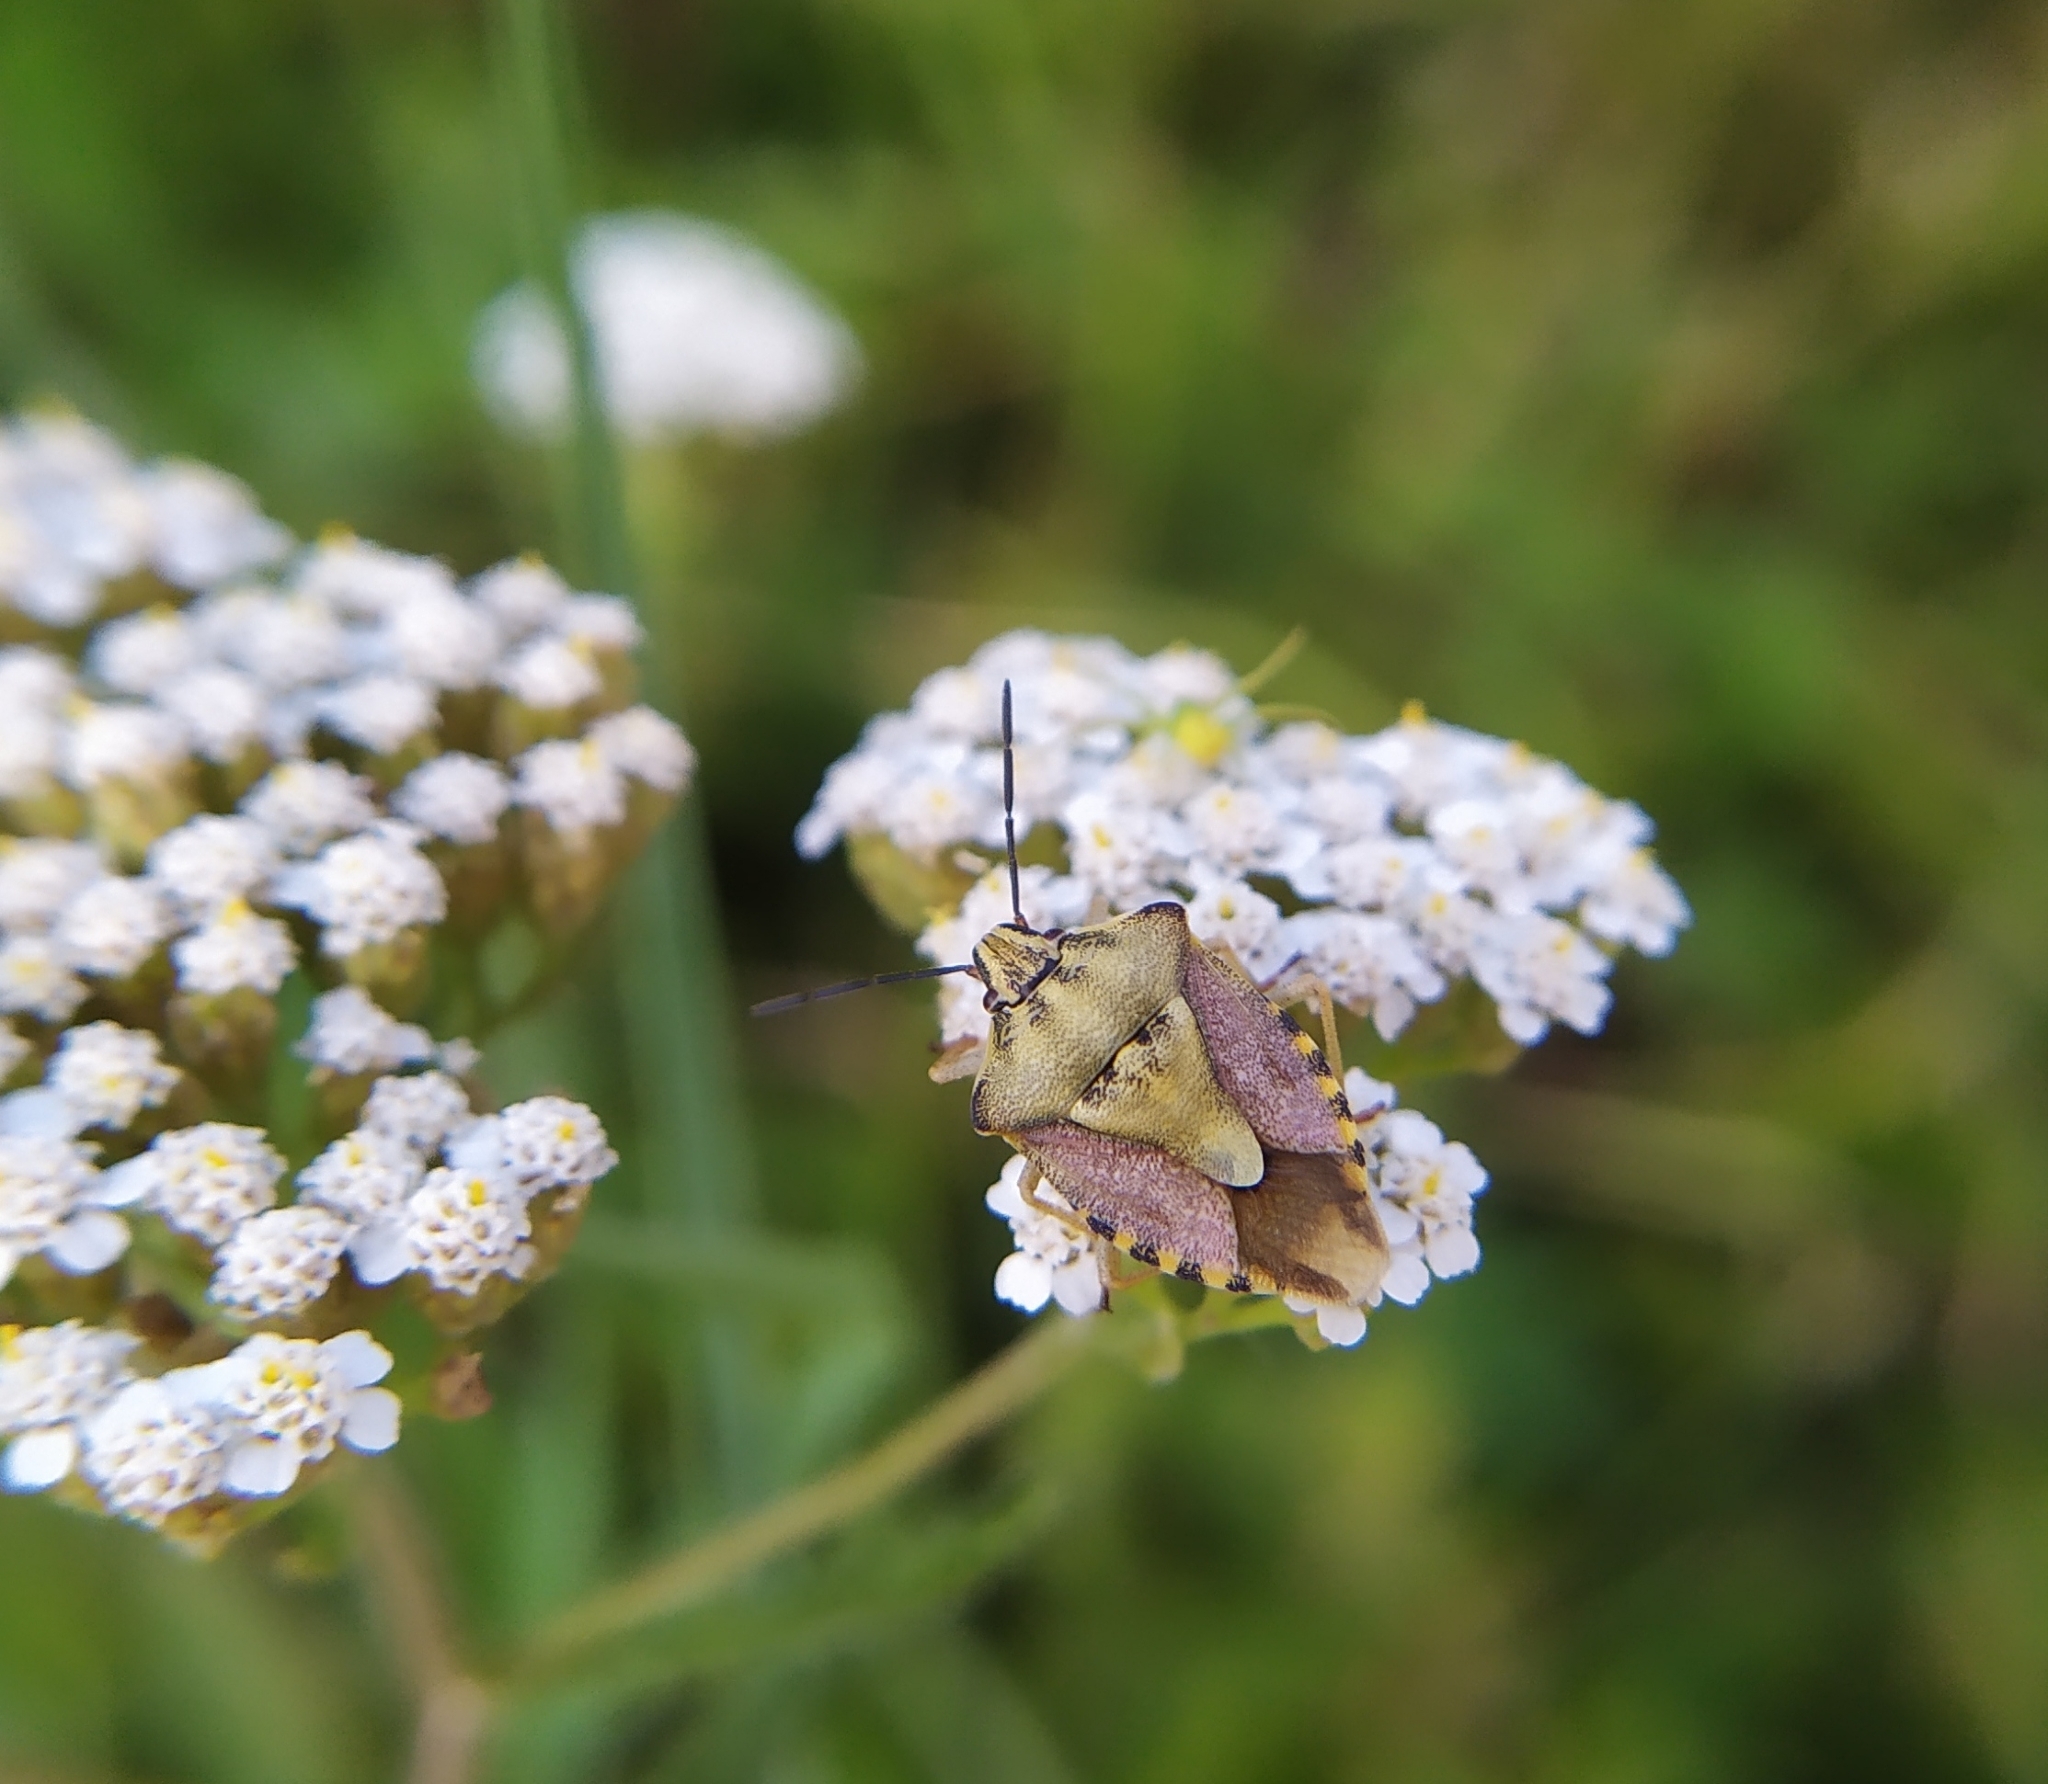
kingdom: Animalia
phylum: Arthropoda
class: Insecta
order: Hemiptera
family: Pentatomidae
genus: Carpocoris
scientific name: Carpocoris purpureipennis
